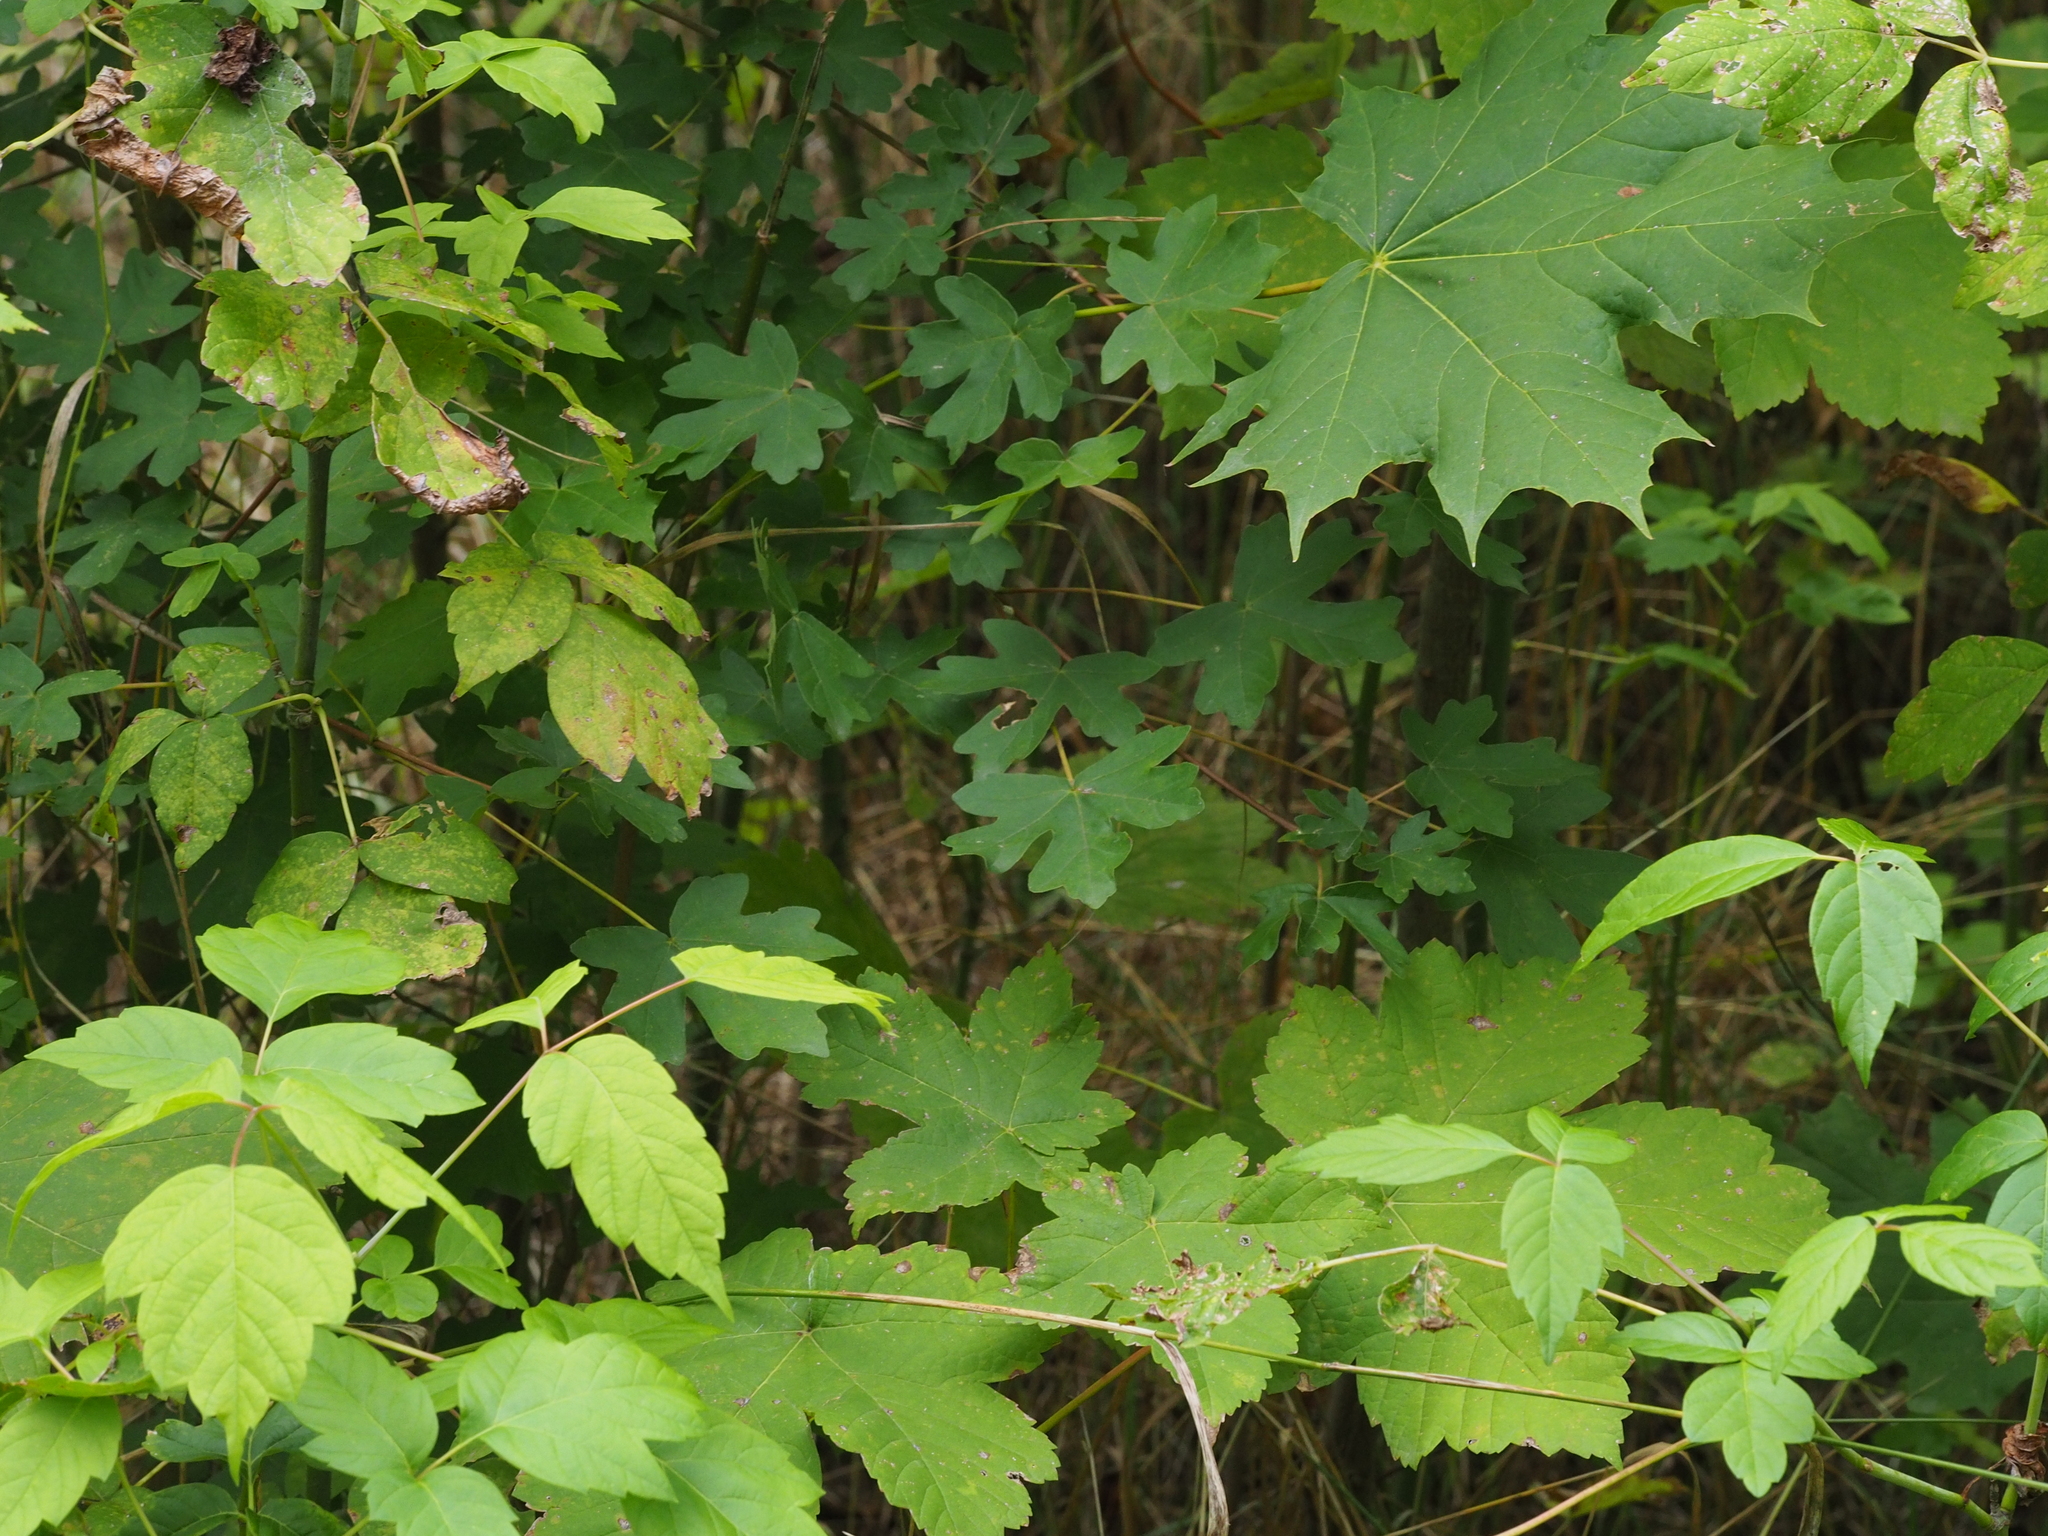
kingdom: Plantae
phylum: Tracheophyta
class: Magnoliopsida
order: Sapindales
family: Sapindaceae
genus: Acer
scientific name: Acer negundo
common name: Ashleaf maple
